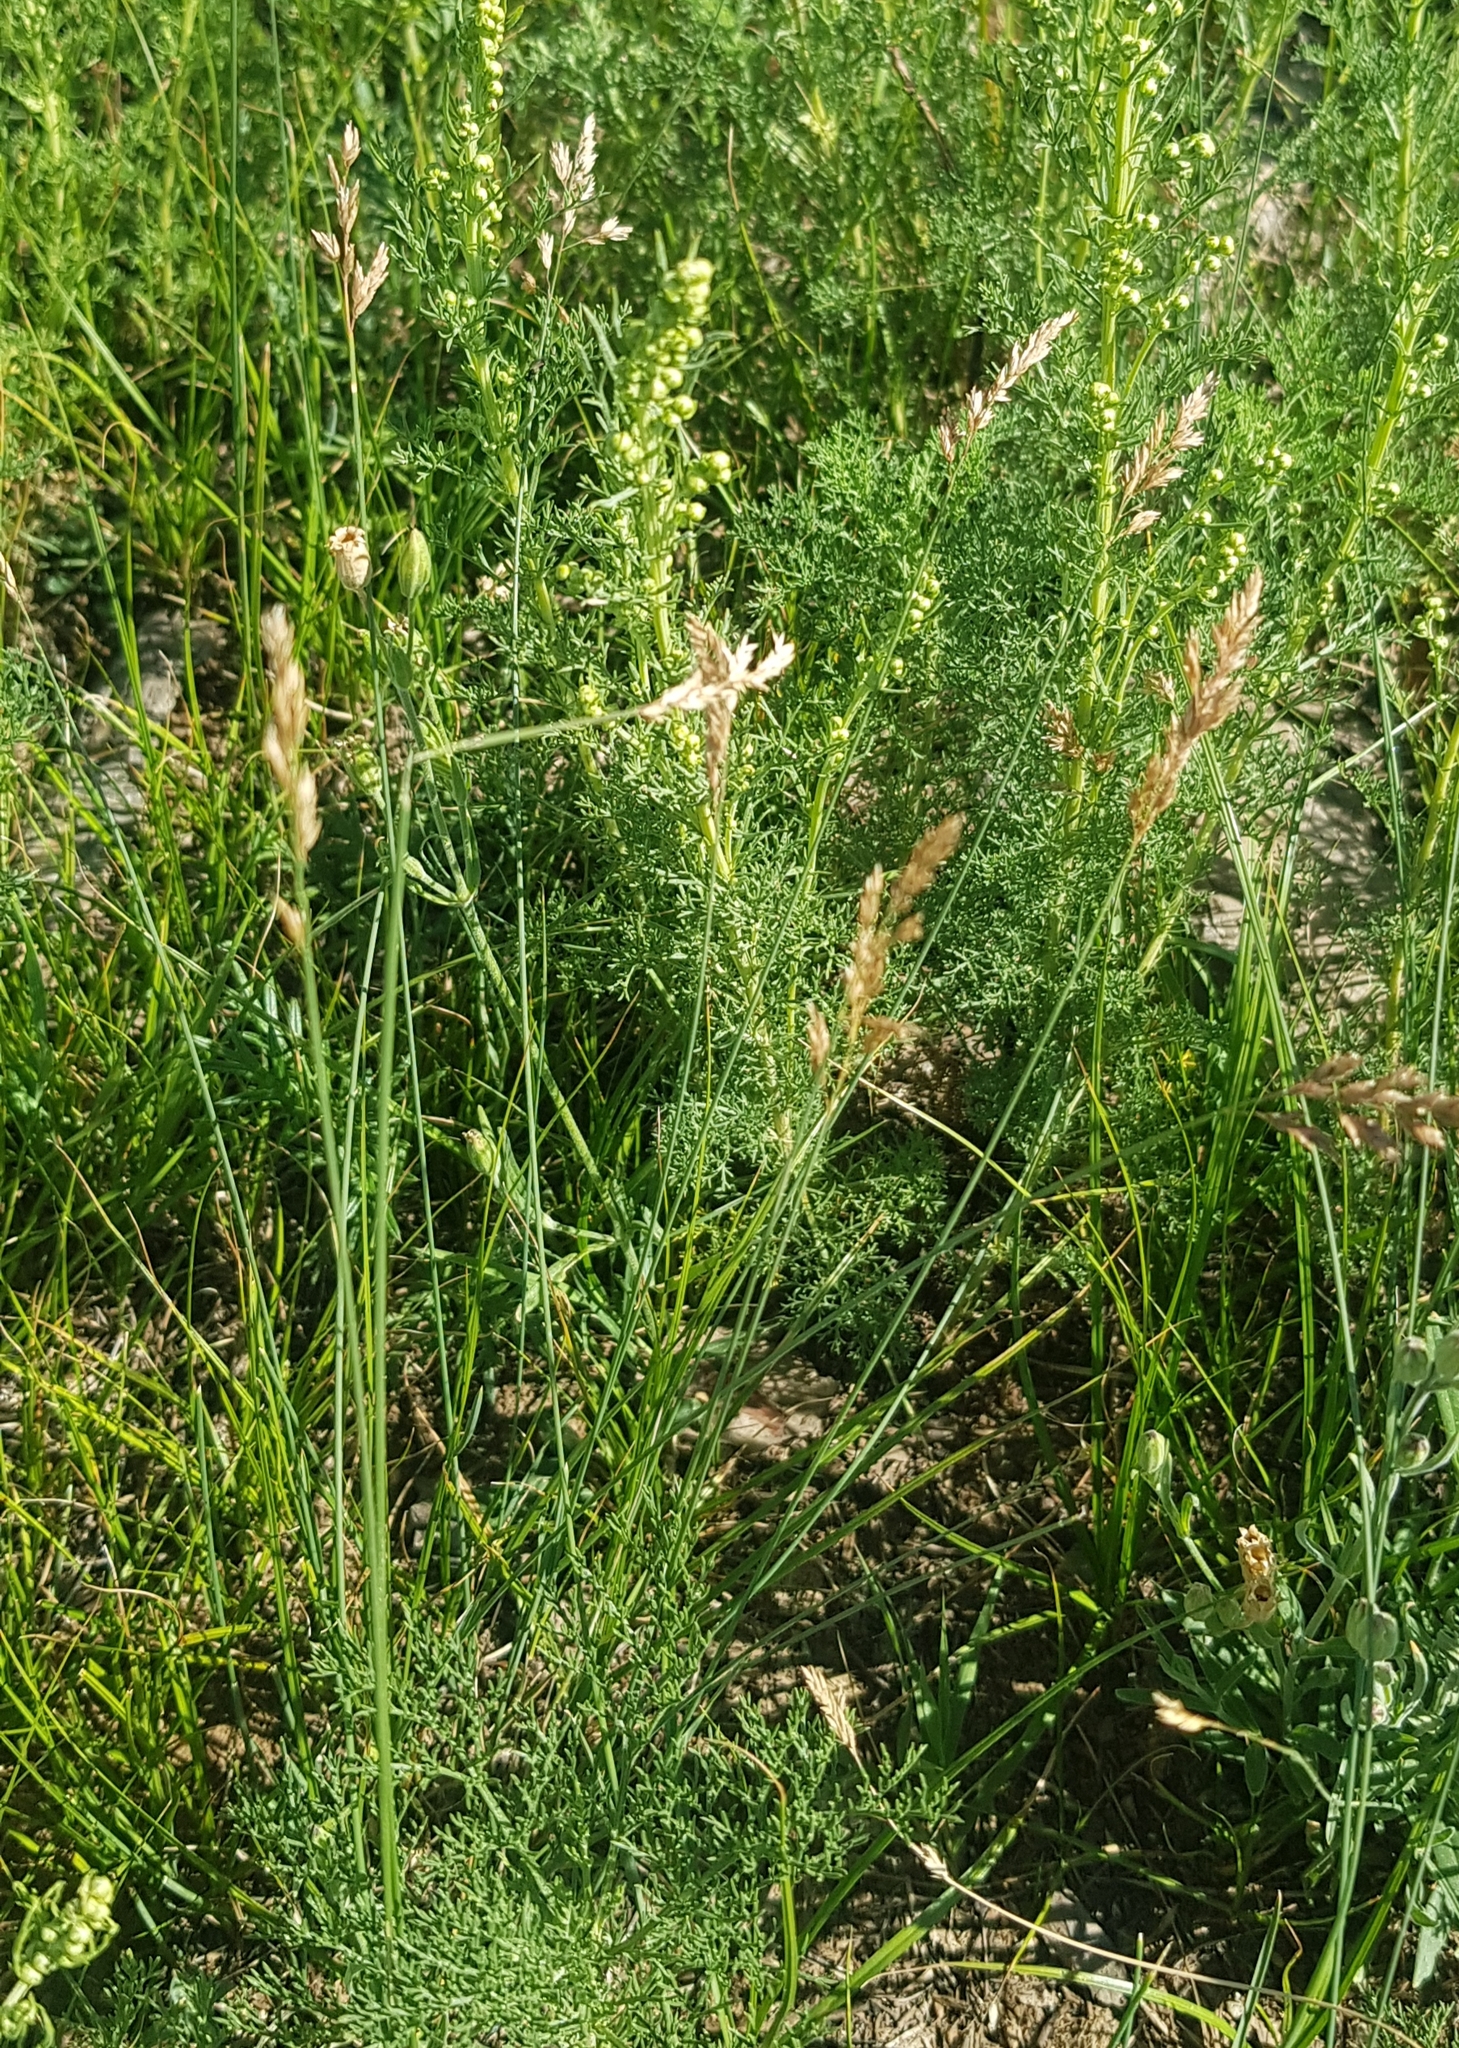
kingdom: Plantae
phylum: Tracheophyta
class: Liliopsida
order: Poales
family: Poaceae
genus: Poa
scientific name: Poa pratensis
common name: Kentucky bluegrass
